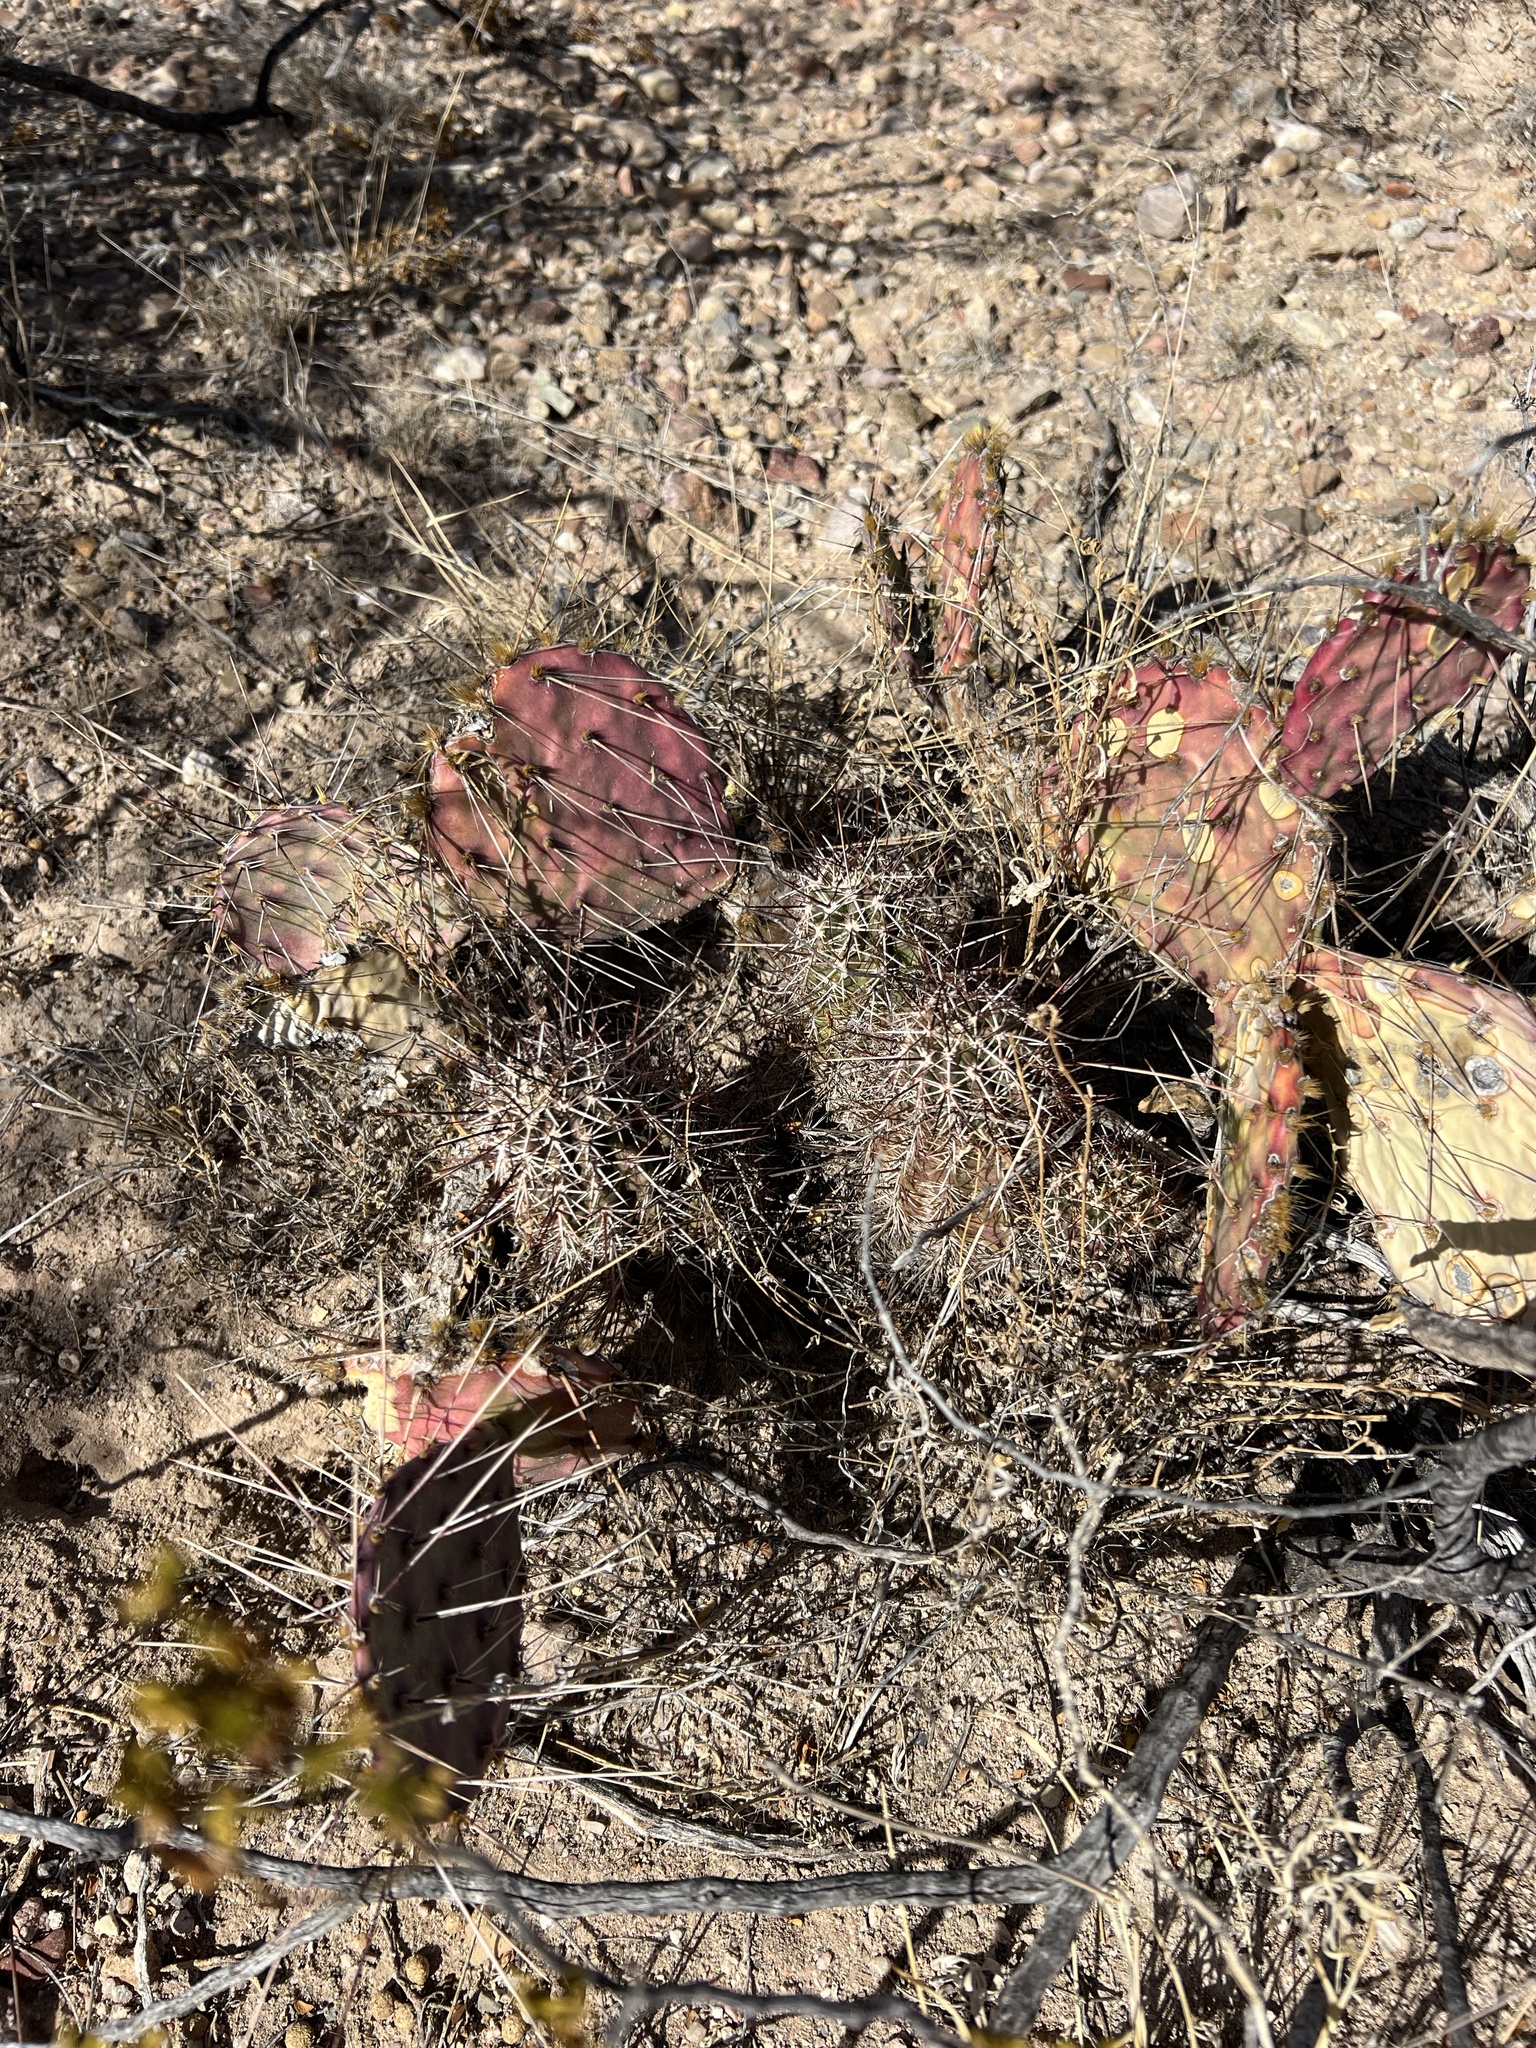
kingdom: Plantae
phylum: Tracheophyta
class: Magnoliopsida
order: Caryophyllales
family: Cactaceae
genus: Echinocereus
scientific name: Echinocereus fasciculatus
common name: Bundle hedgehog
